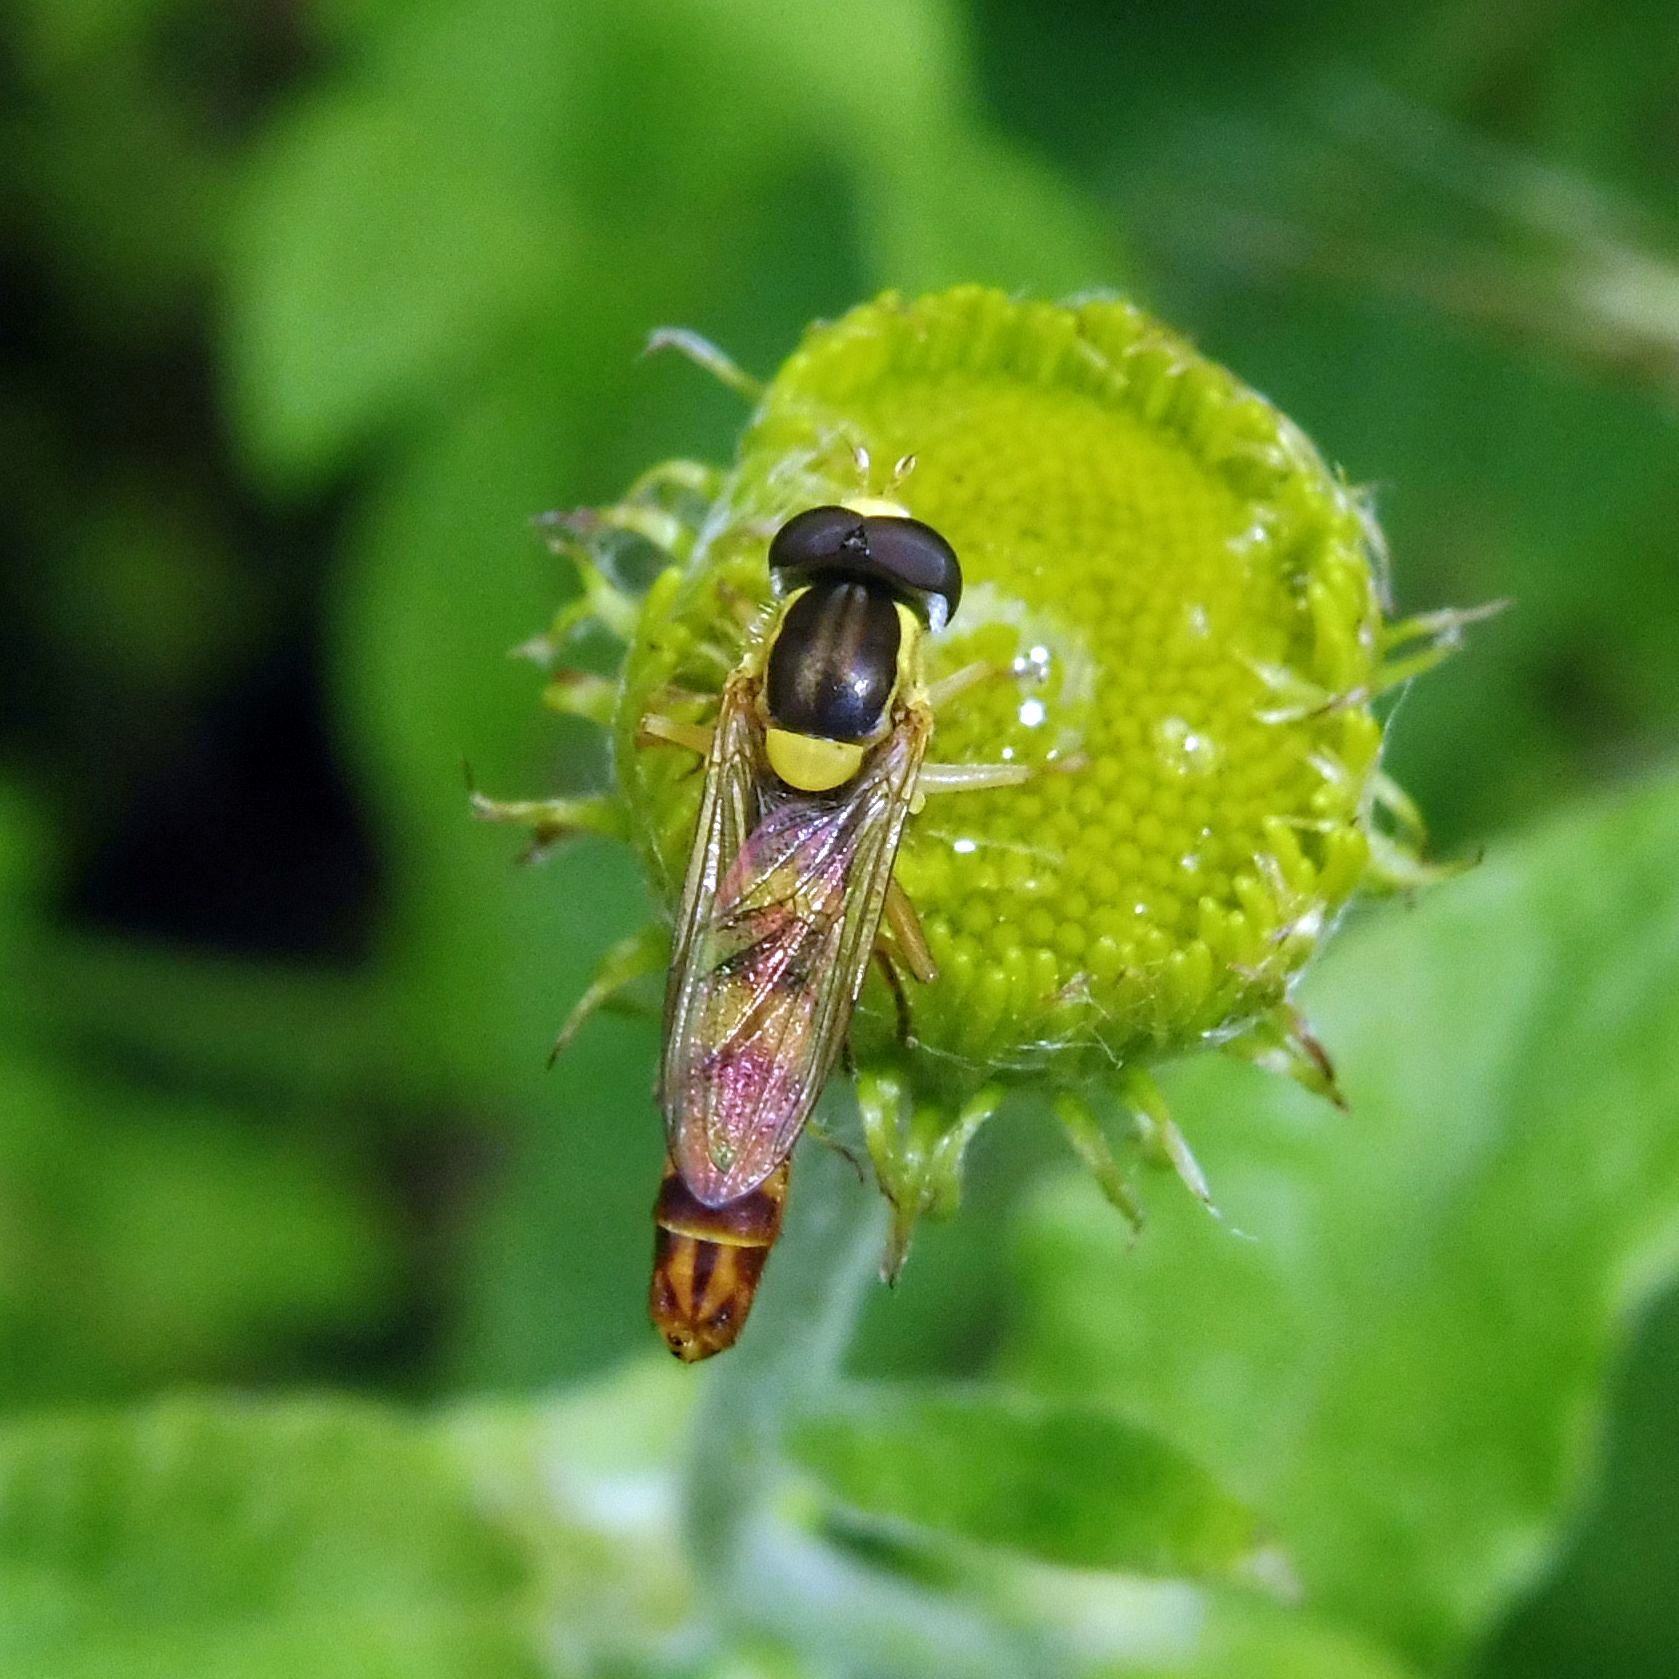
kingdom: Animalia
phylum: Arthropoda
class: Insecta
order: Diptera
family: Syrphidae
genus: Sphaerophoria
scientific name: Sphaerophoria scripta
